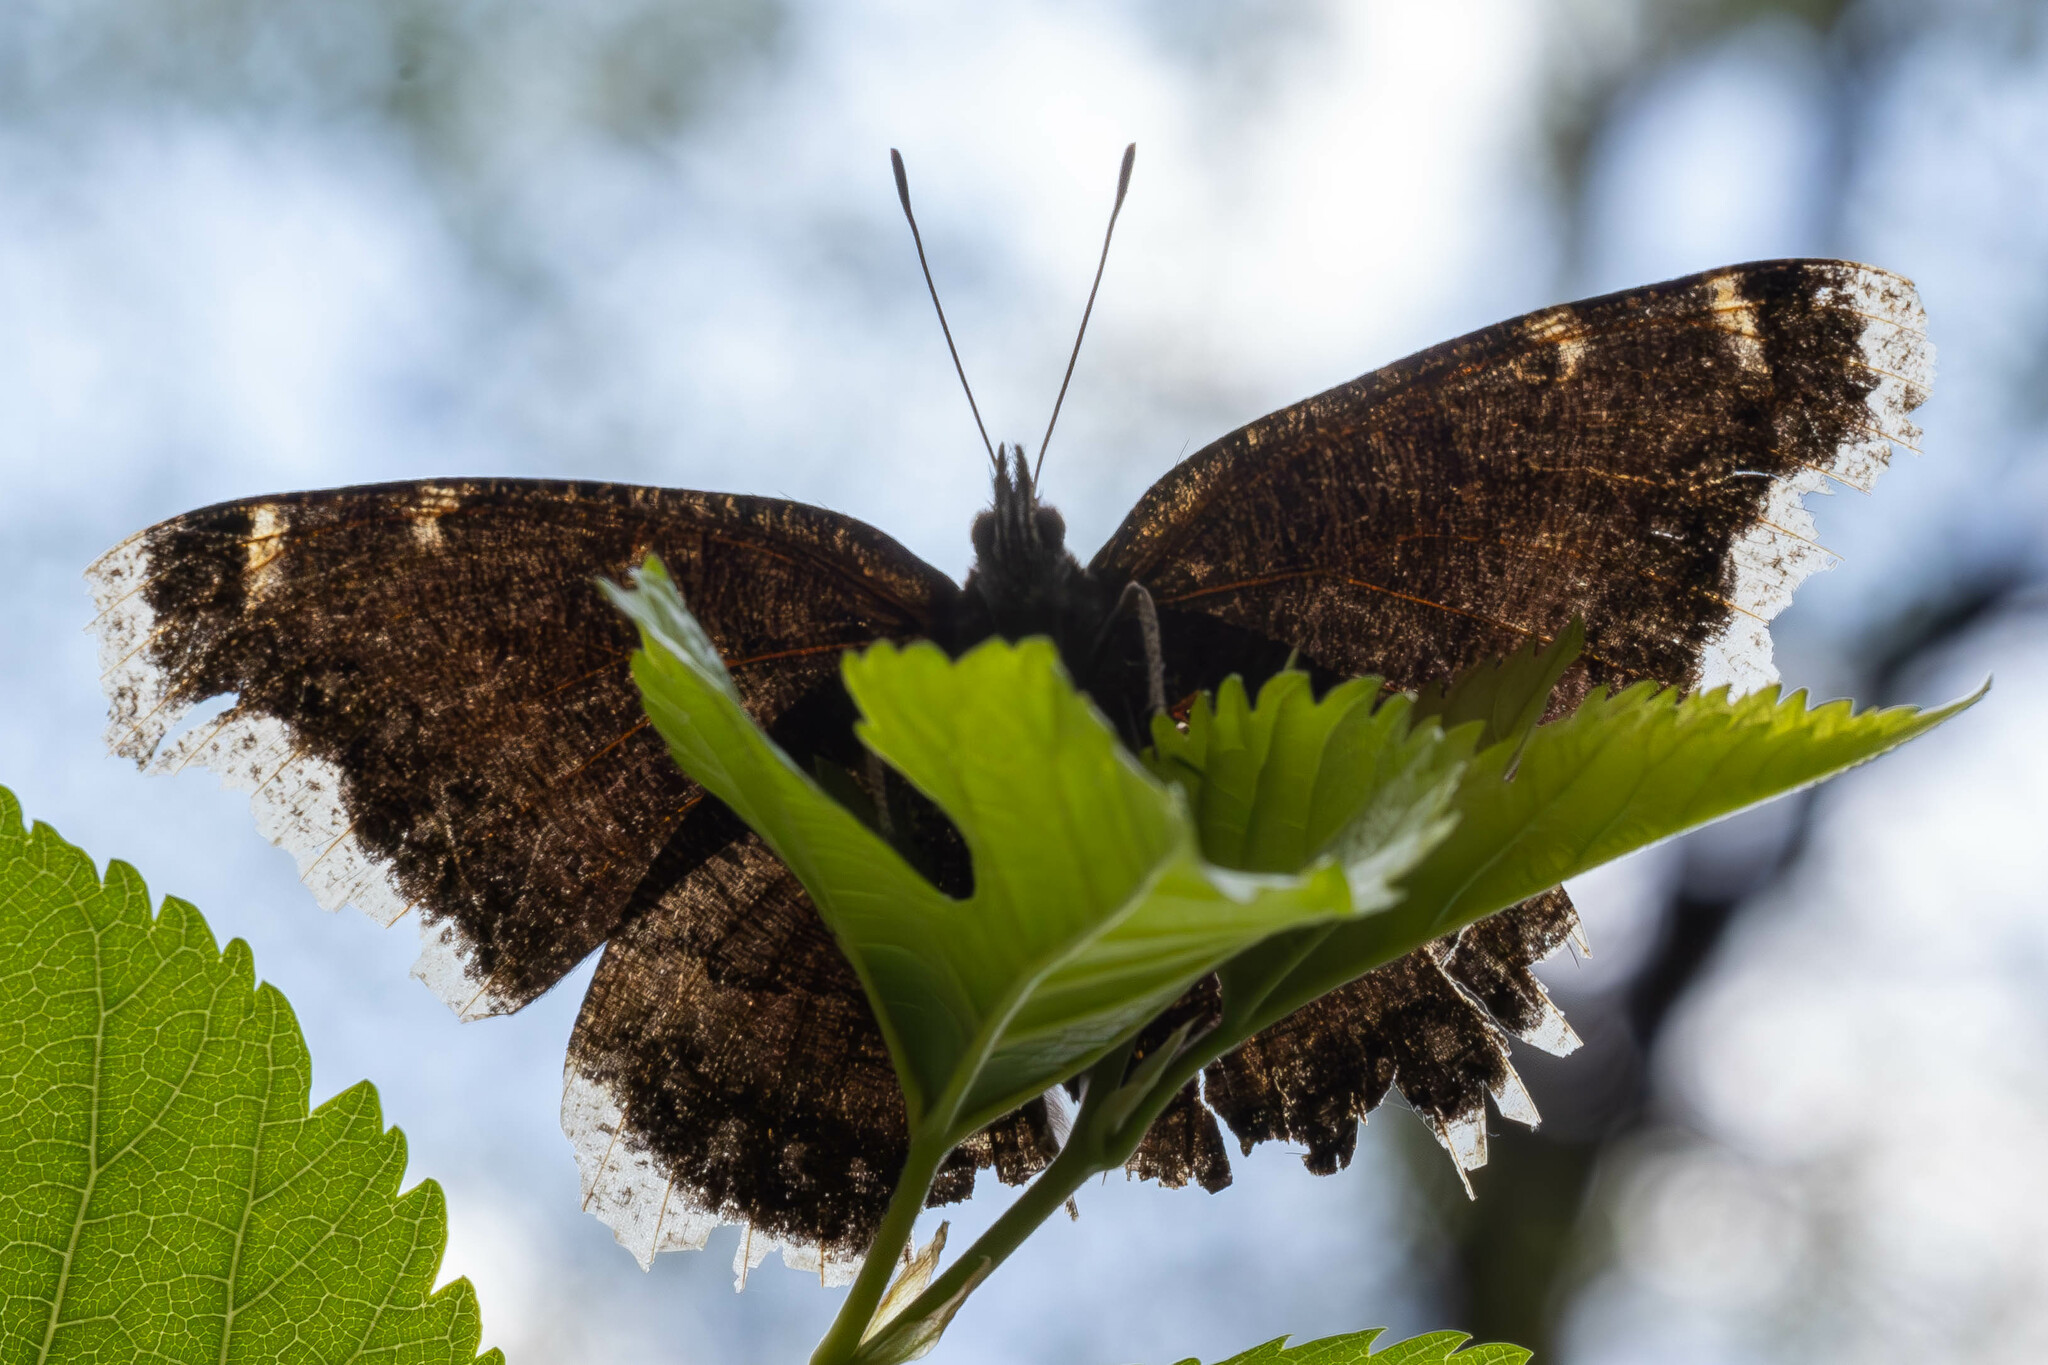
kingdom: Animalia
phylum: Arthropoda
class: Insecta
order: Lepidoptera
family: Nymphalidae
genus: Nymphalis
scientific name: Nymphalis antiopa
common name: Camberwell beauty
